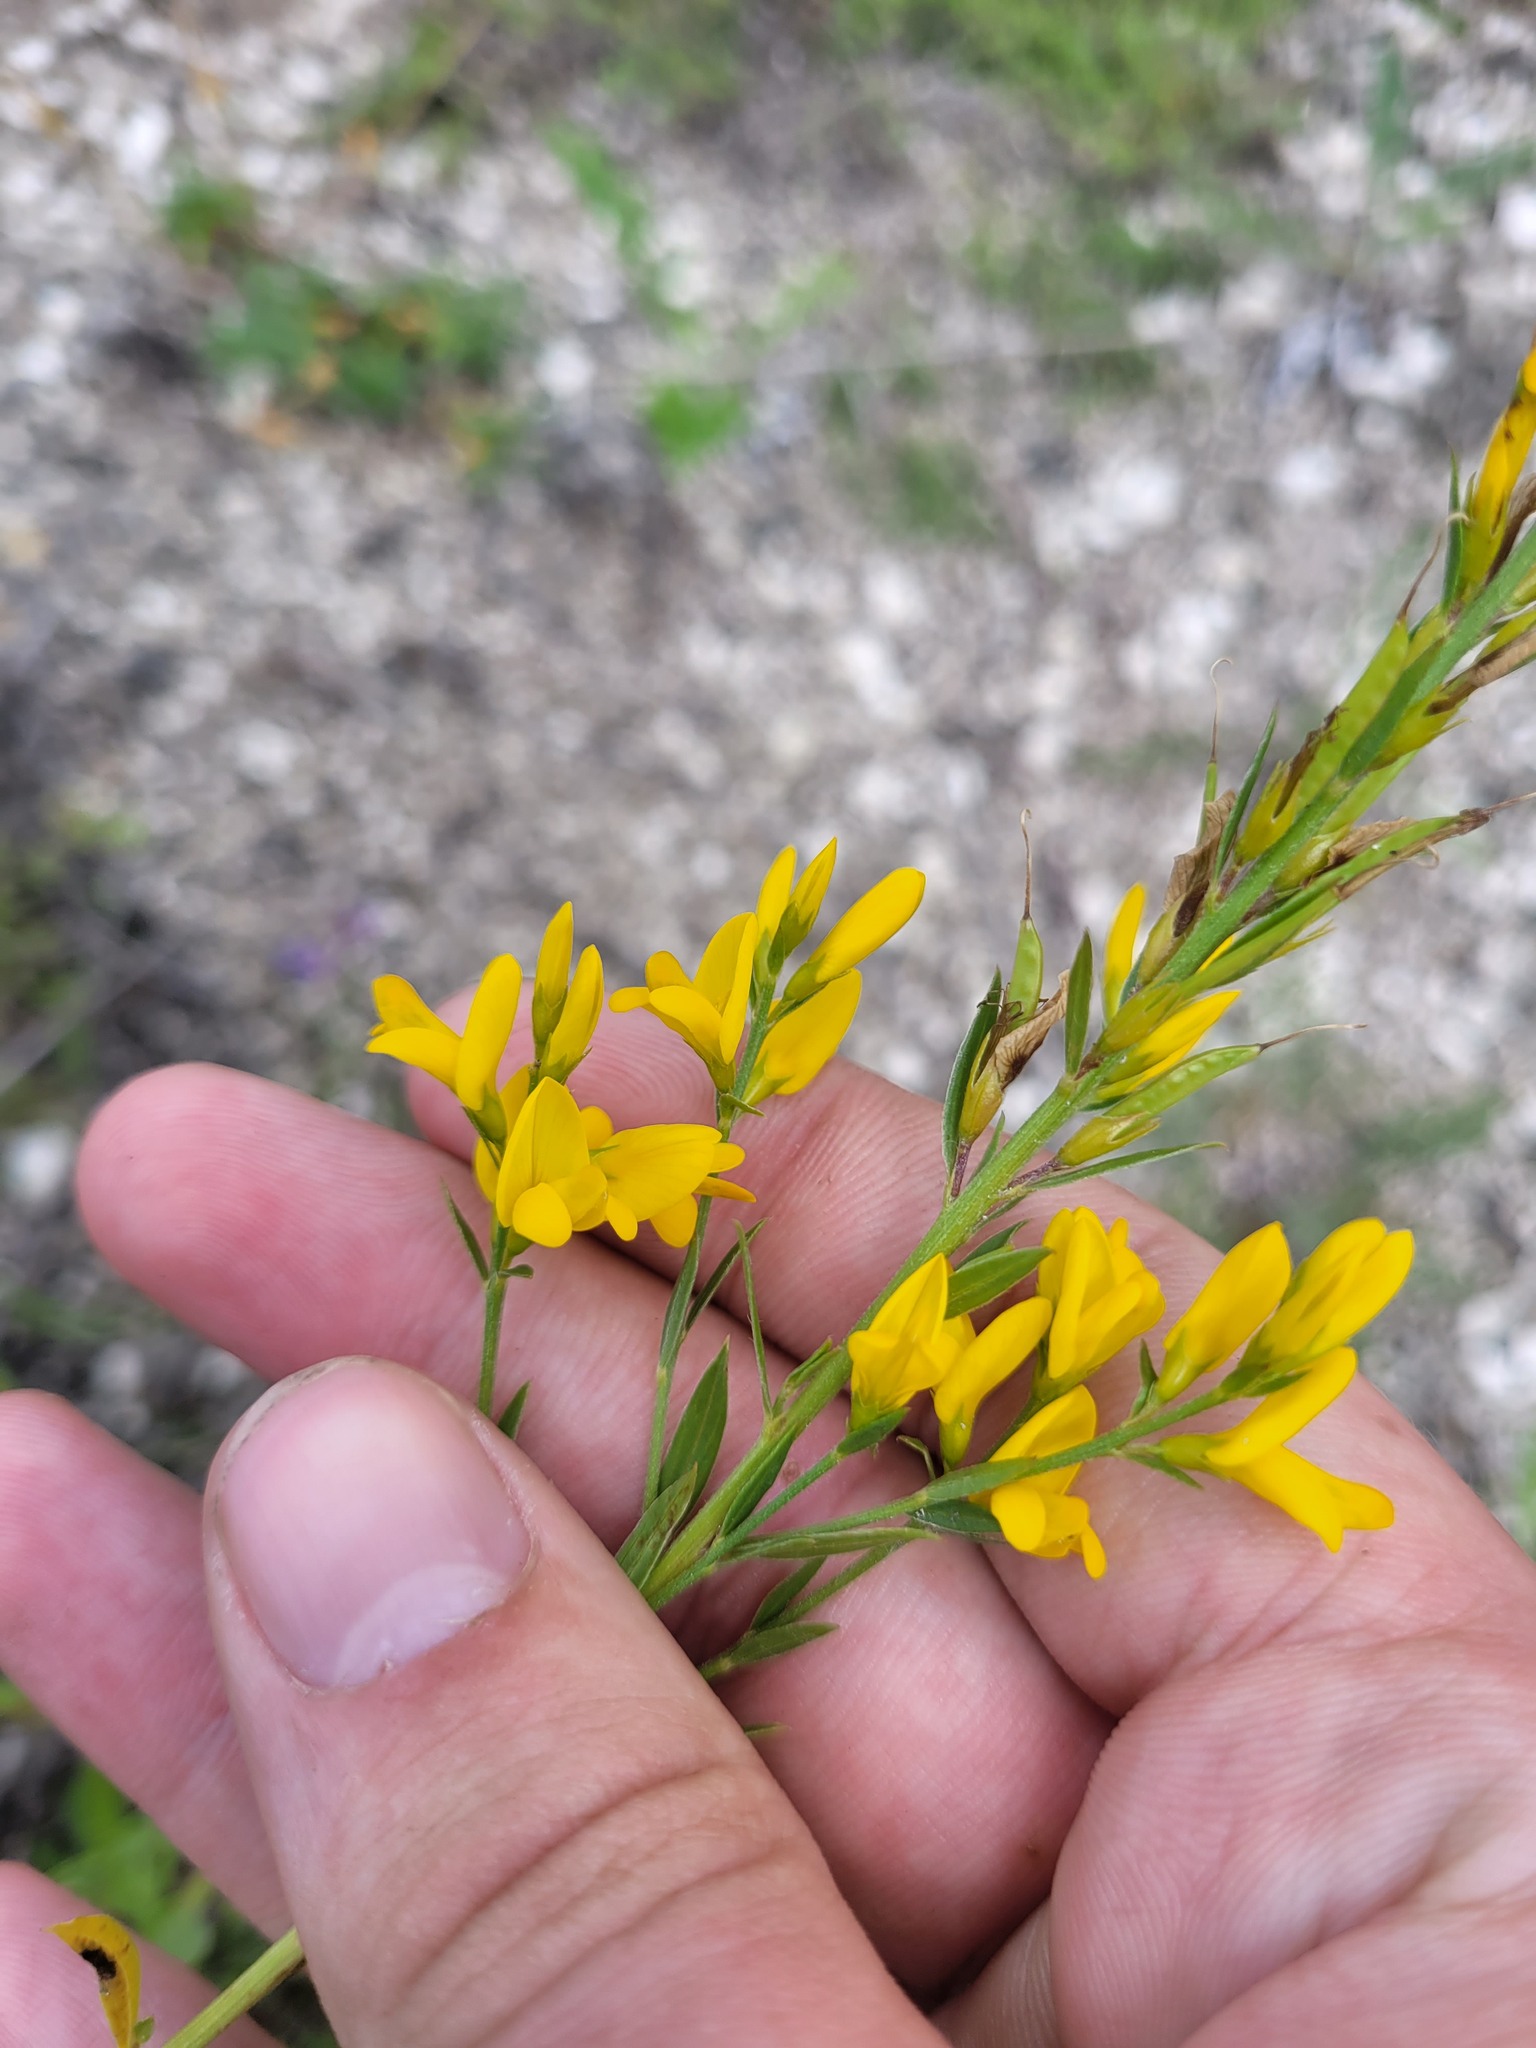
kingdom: Plantae
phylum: Tracheophyta
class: Magnoliopsida
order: Fabales
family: Fabaceae
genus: Genista
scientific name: Genista tinctoria
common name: Dyer's greenweed
